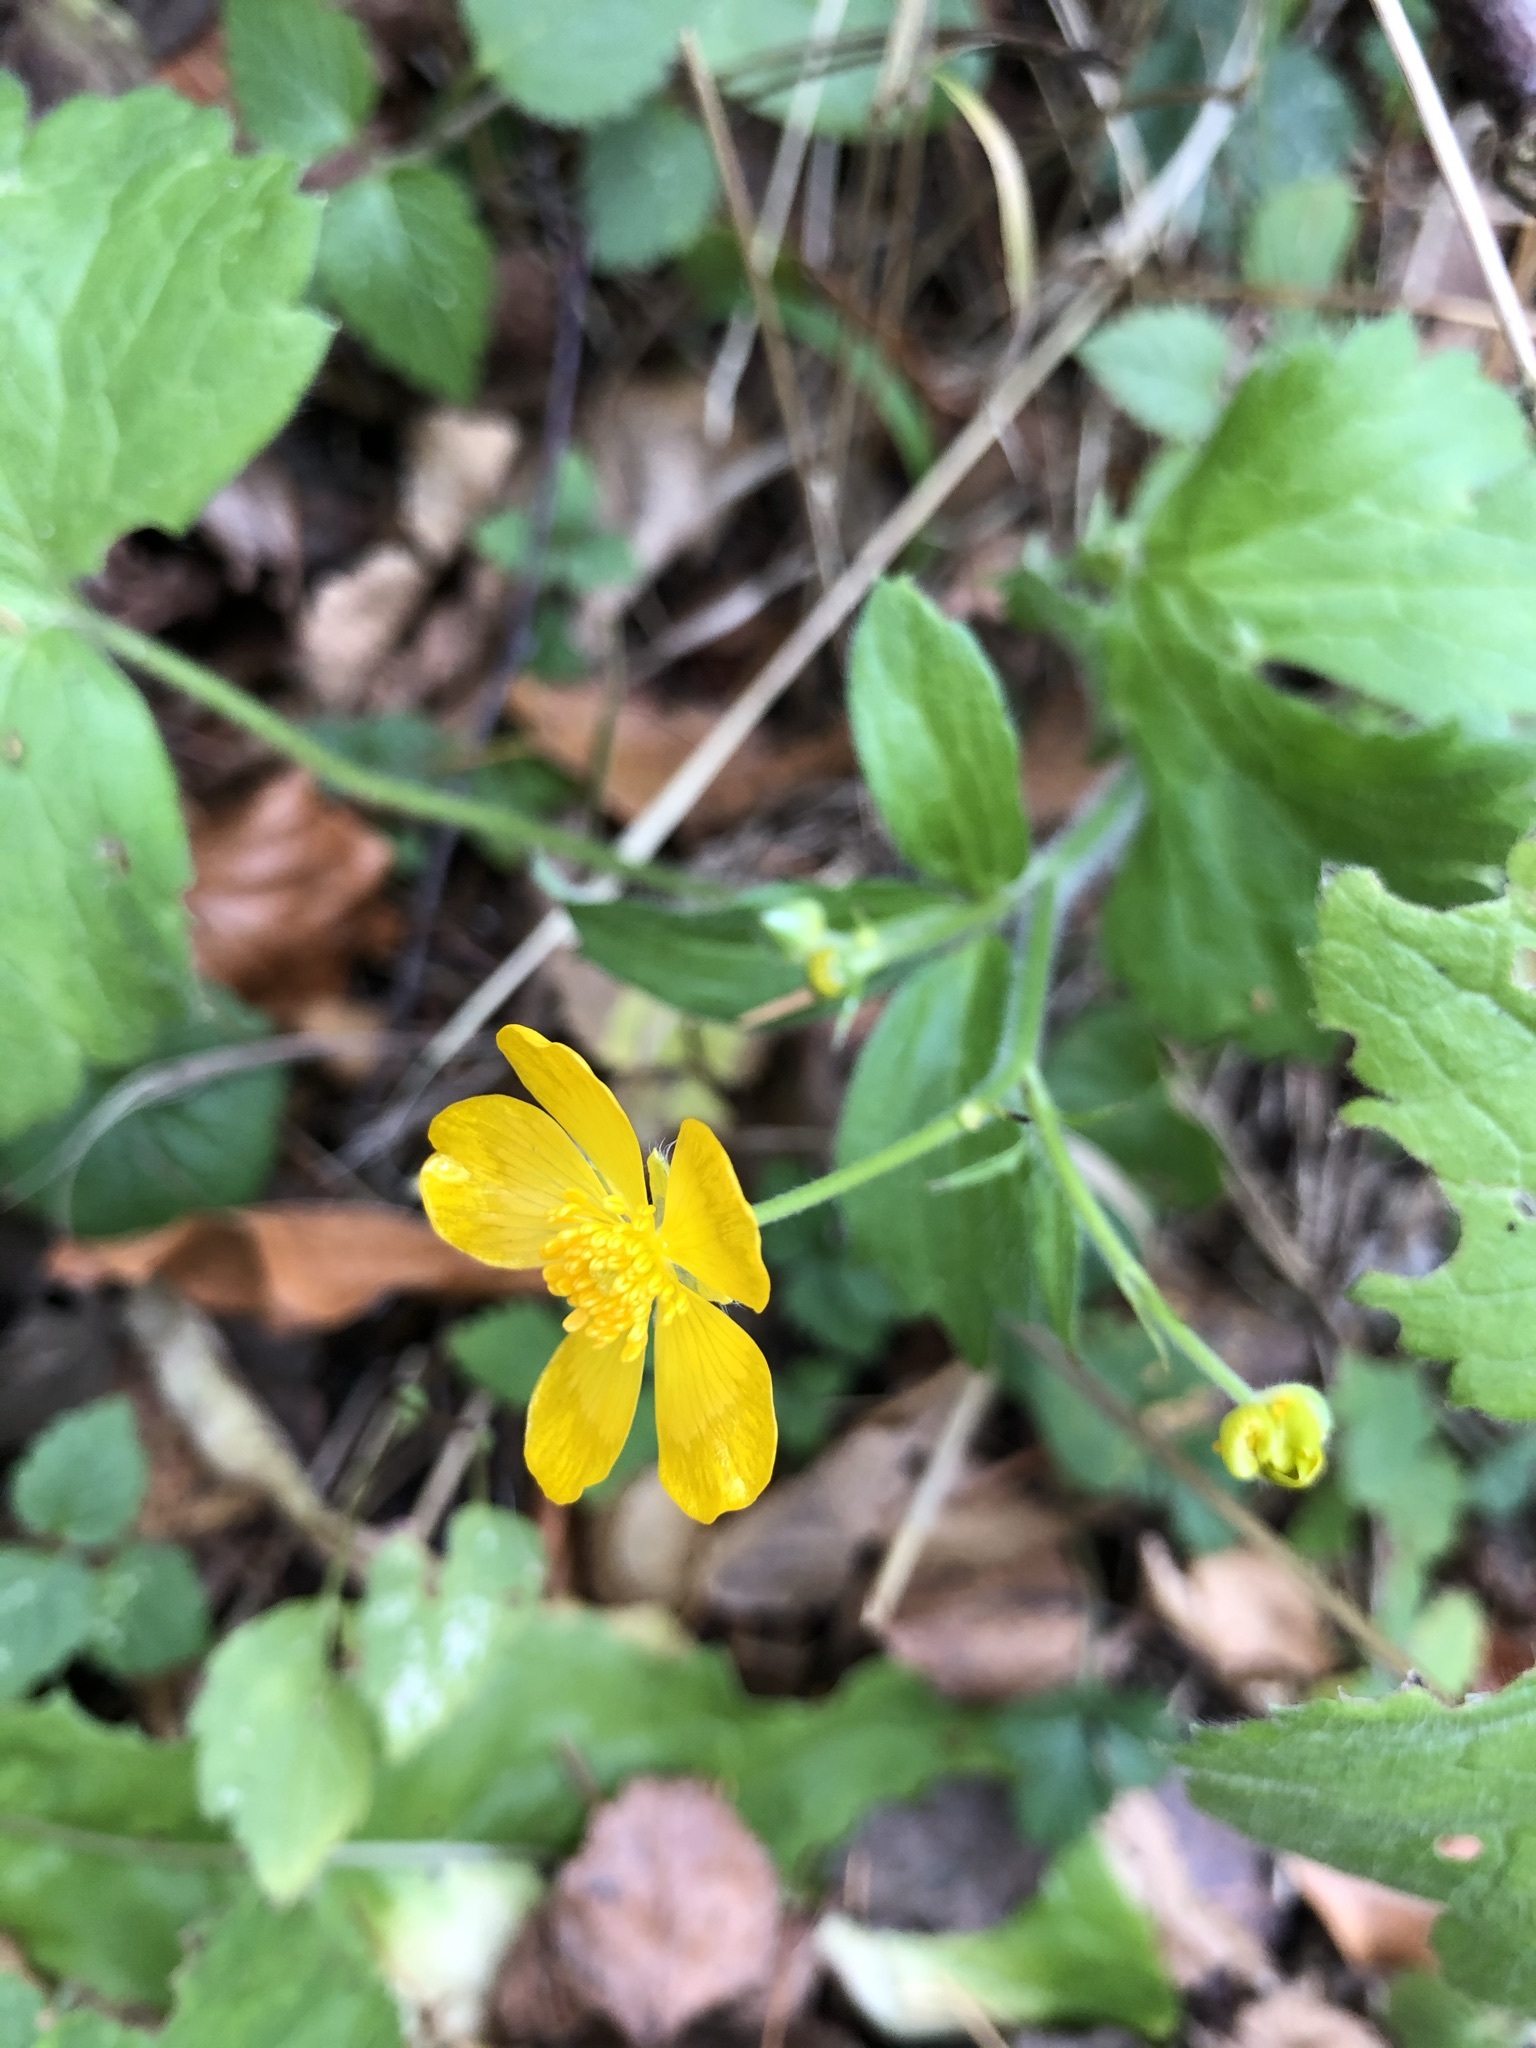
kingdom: Plantae
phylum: Tracheophyta
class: Magnoliopsida
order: Ranunculales
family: Ranunculaceae
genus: Ranunculus
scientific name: Ranunculus lanuginosus
